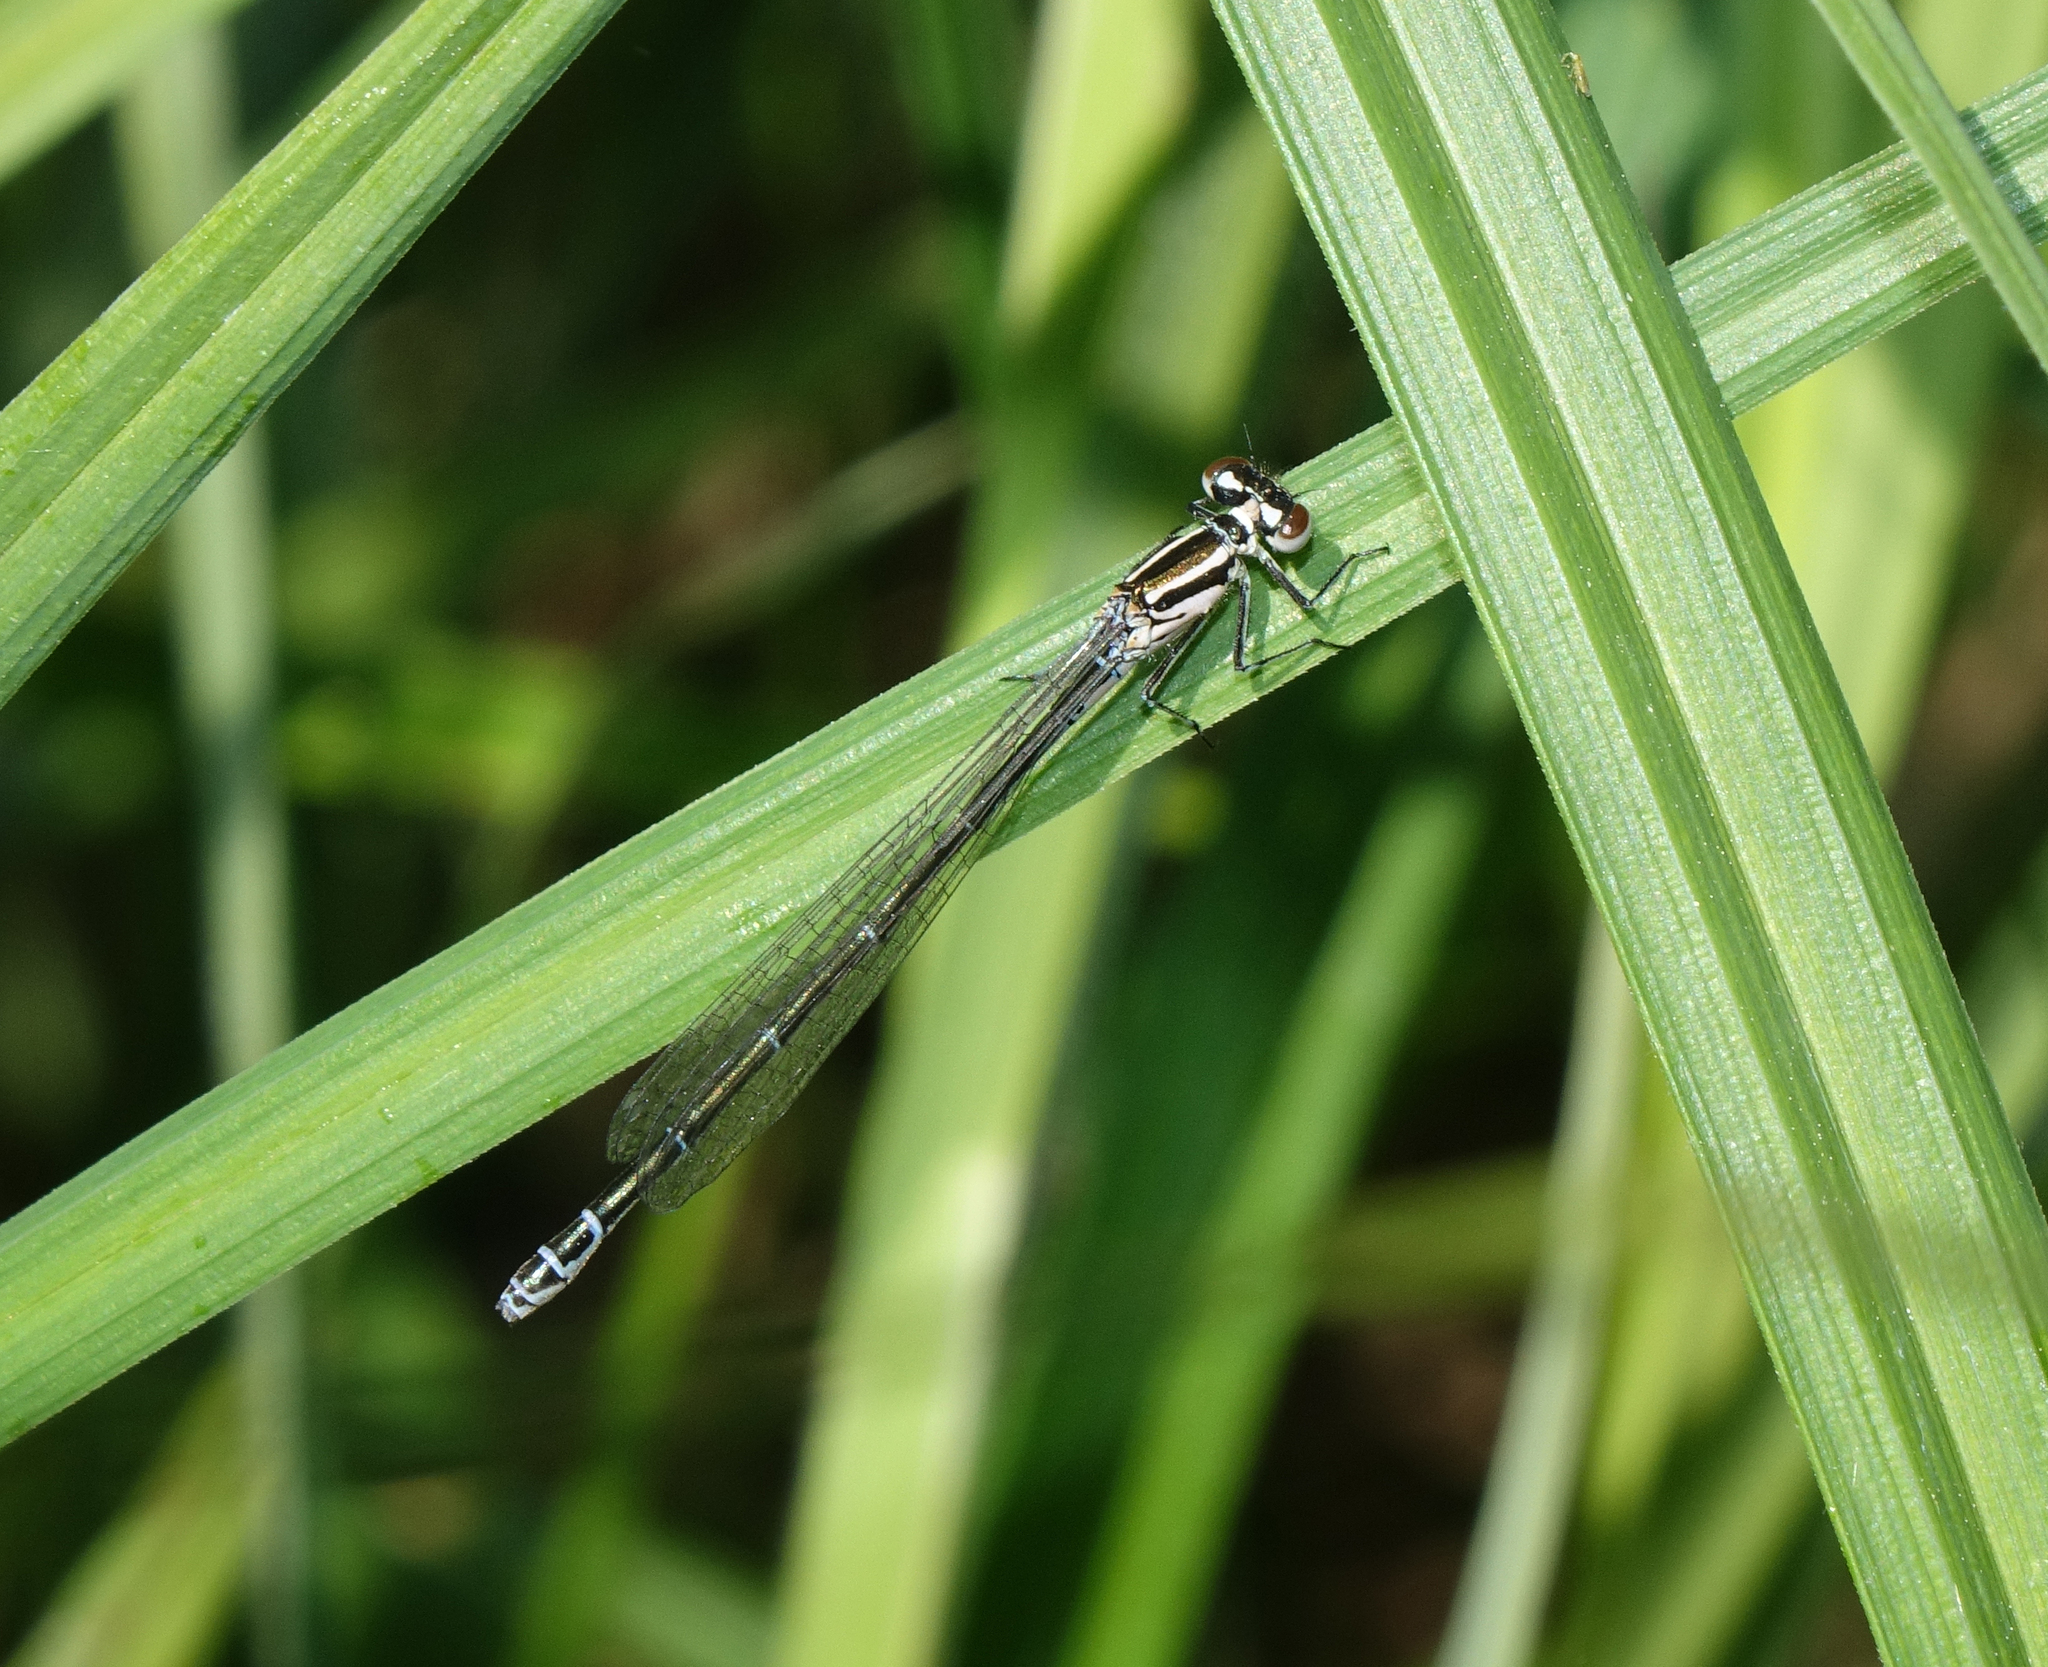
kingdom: Animalia
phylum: Arthropoda
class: Insecta
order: Odonata
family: Coenagrionidae
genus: Coenagrion
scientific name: Coenagrion puella
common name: Azure damselfly
